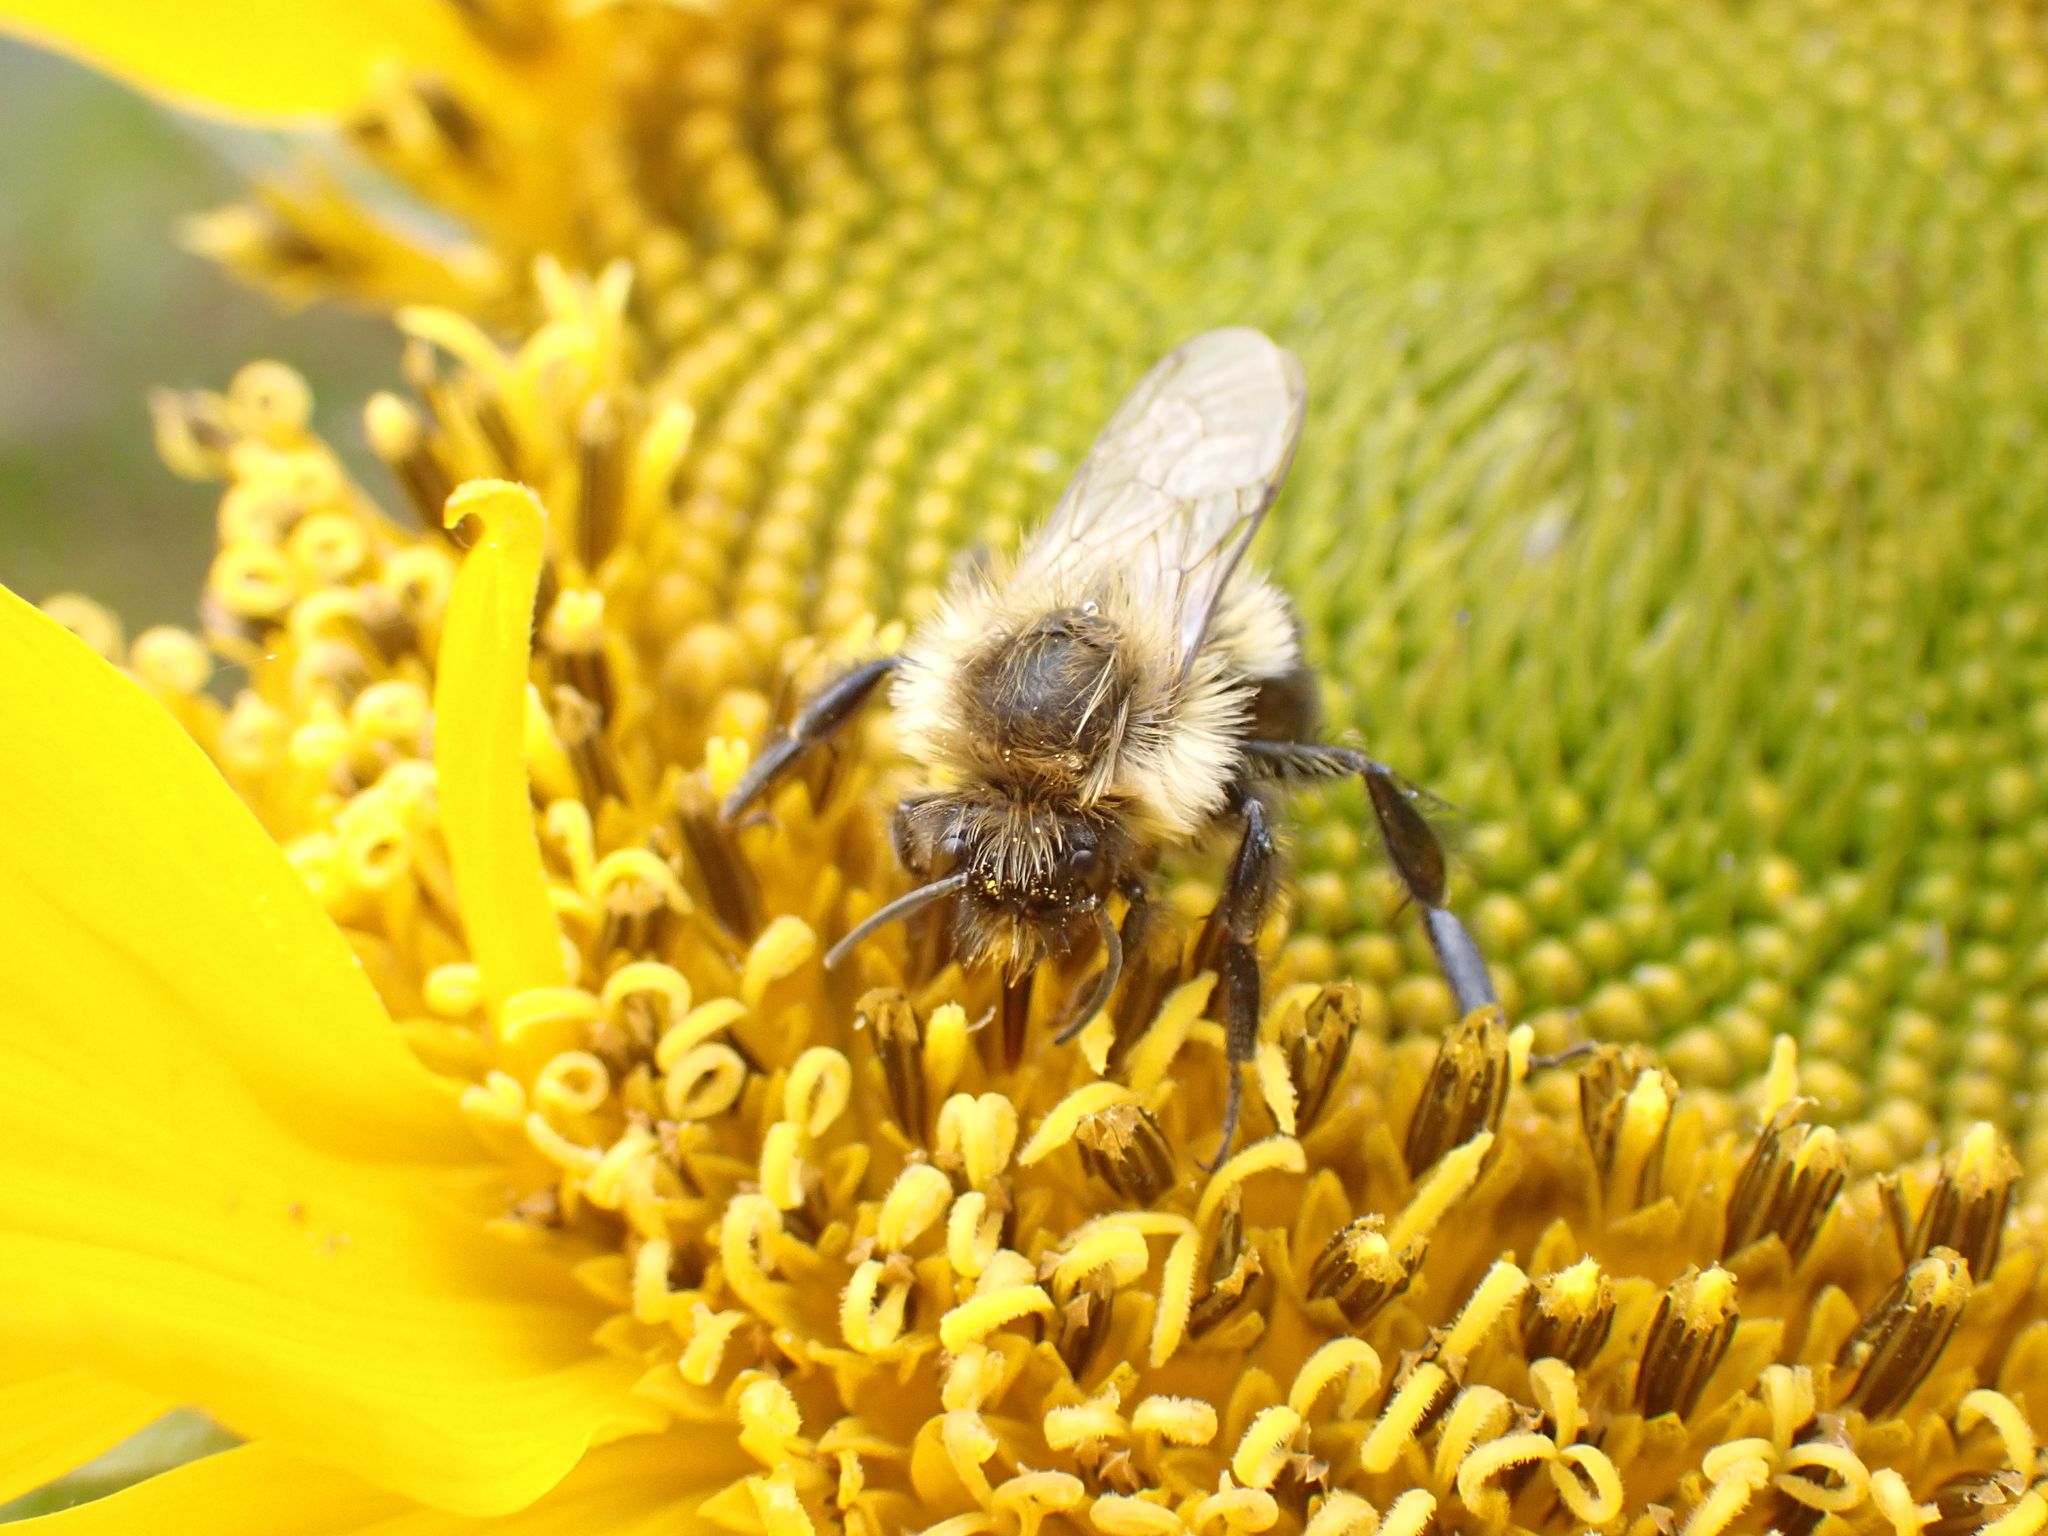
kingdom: Animalia
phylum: Arthropoda
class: Insecta
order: Hymenoptera
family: Apidae
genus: Bombus
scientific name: Bombus impatiens
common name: Common eastern bumble bee
